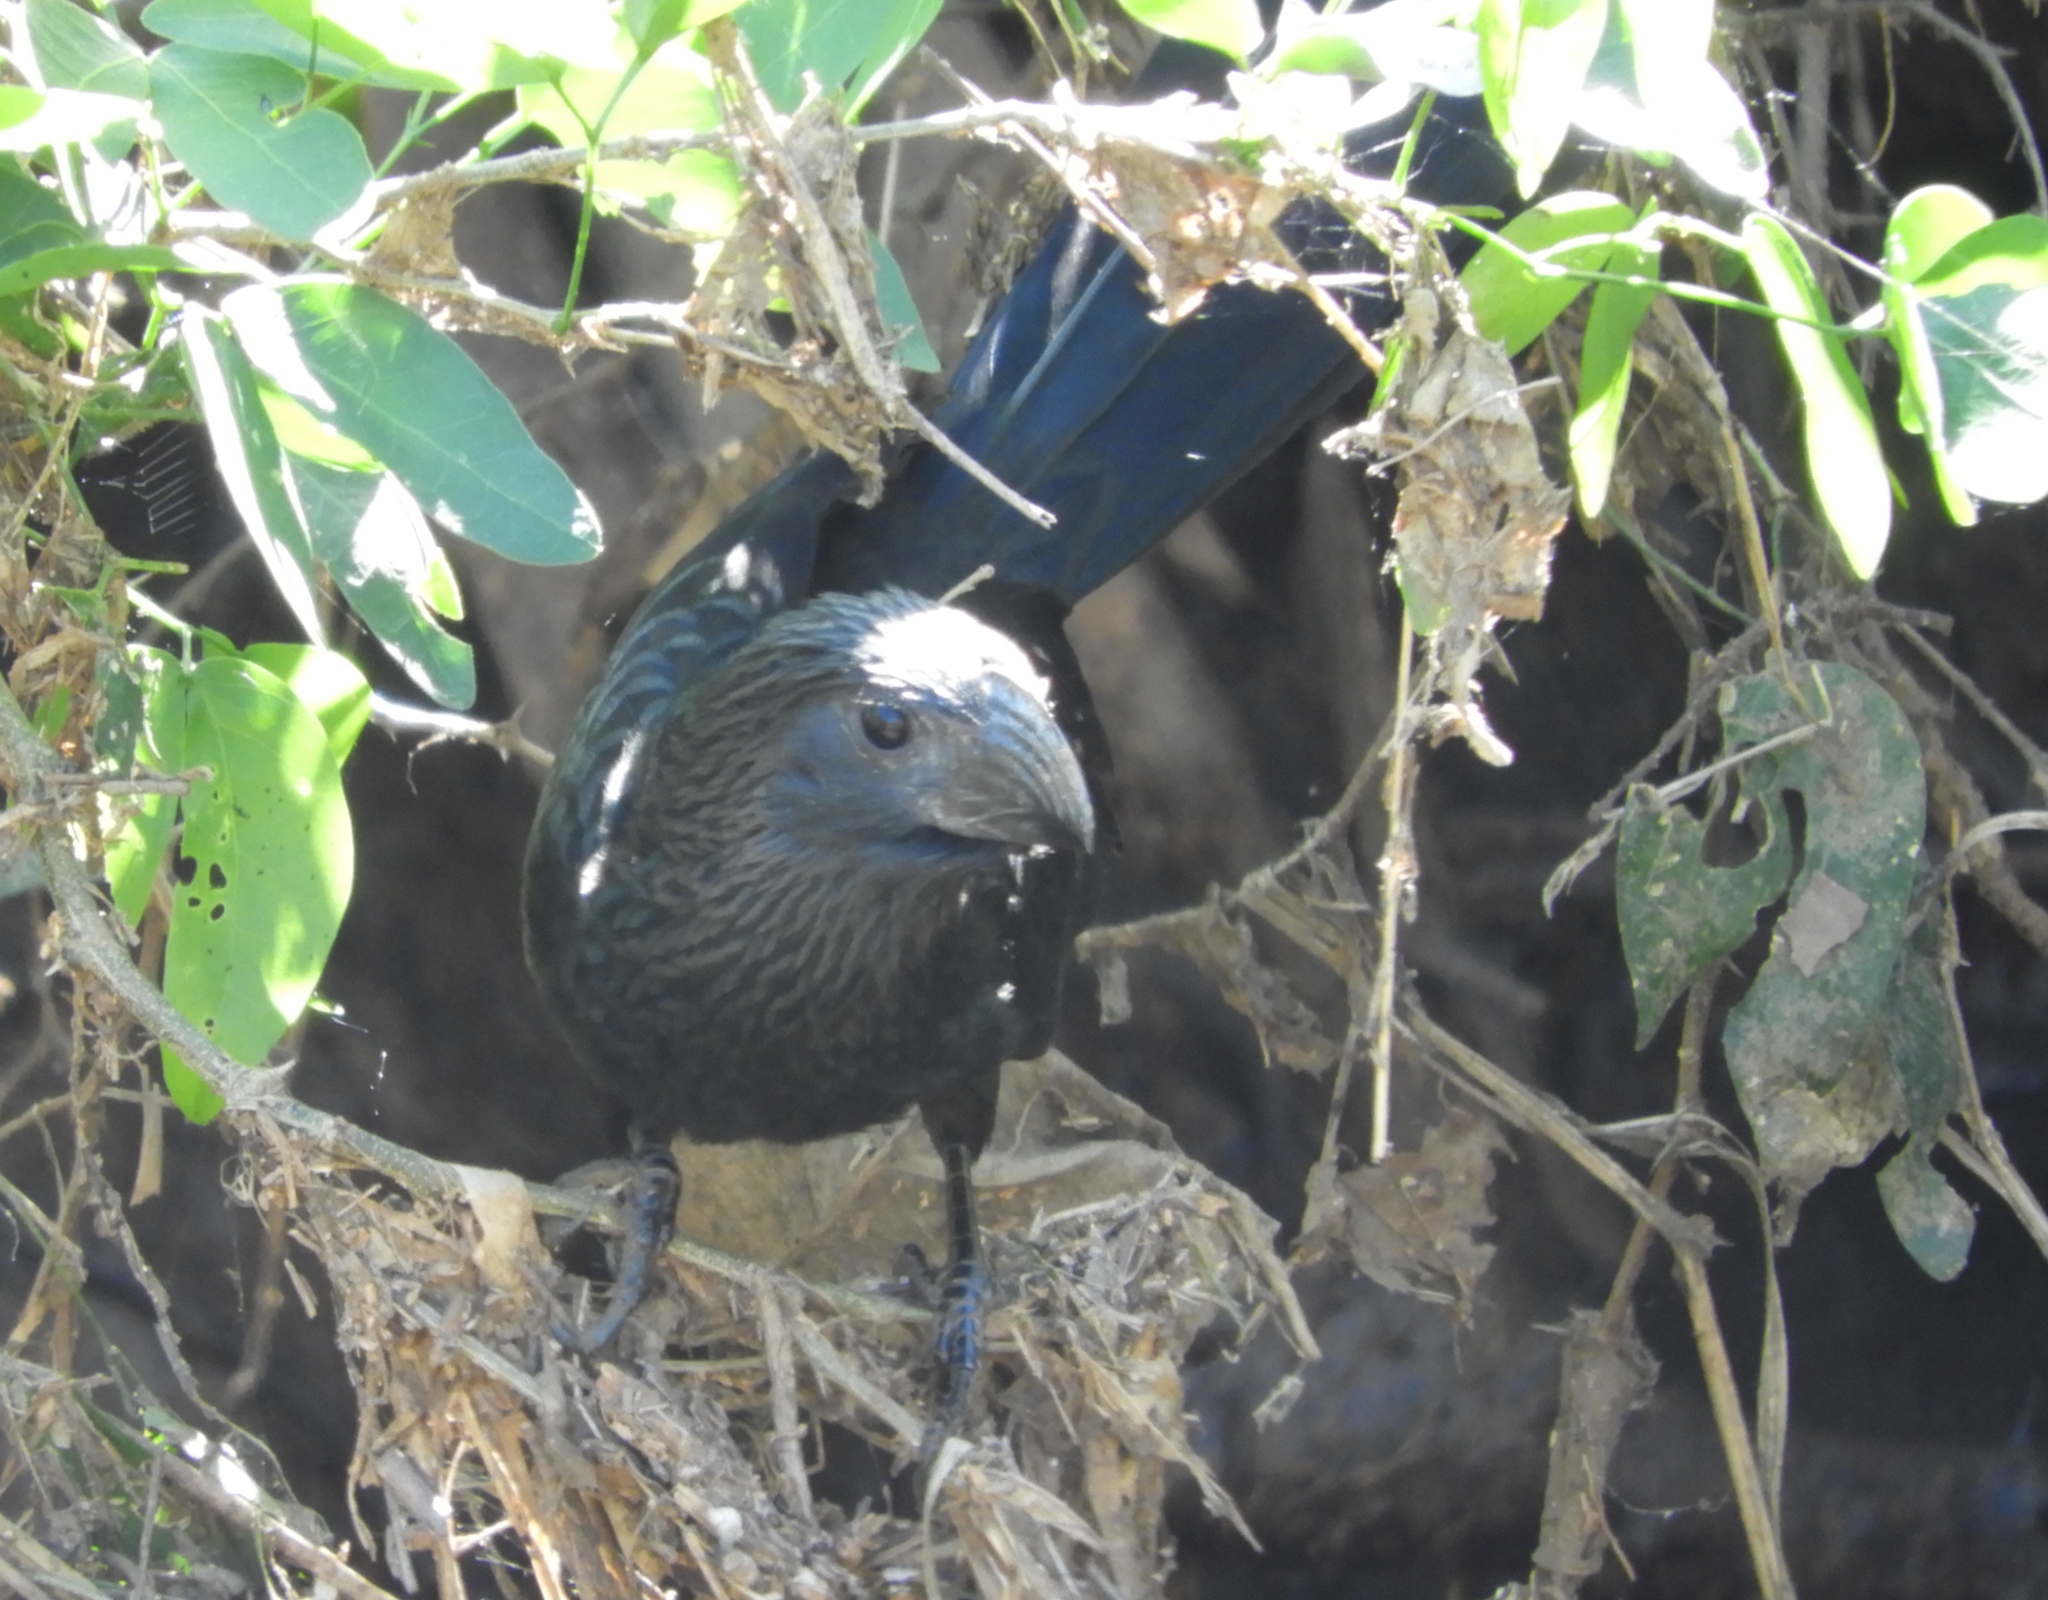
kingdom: Animalia
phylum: Chordata
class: Aves
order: Cuculiformes
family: Cuculidae
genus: Crotophaga
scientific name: Crotophaga sulcirostris
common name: Groove-billed ani
